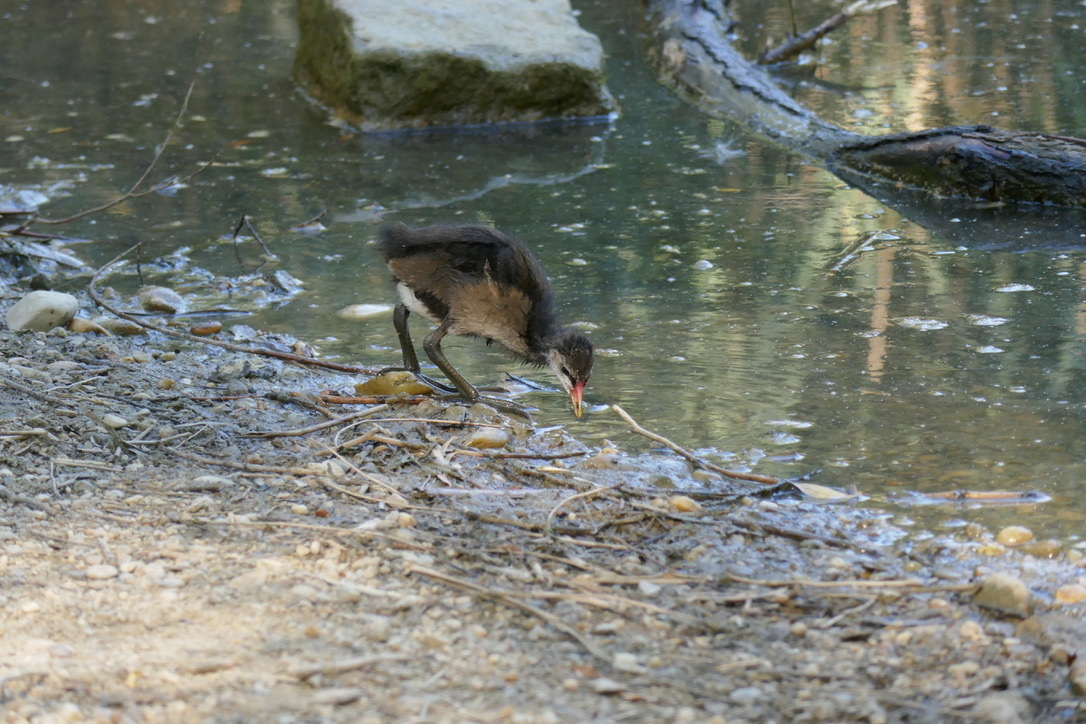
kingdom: Animalia
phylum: Chordata
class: Aves
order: Gruiformes
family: Rallidae
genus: Gallinula
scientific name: Gallinula chloropus
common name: Common moorhen
